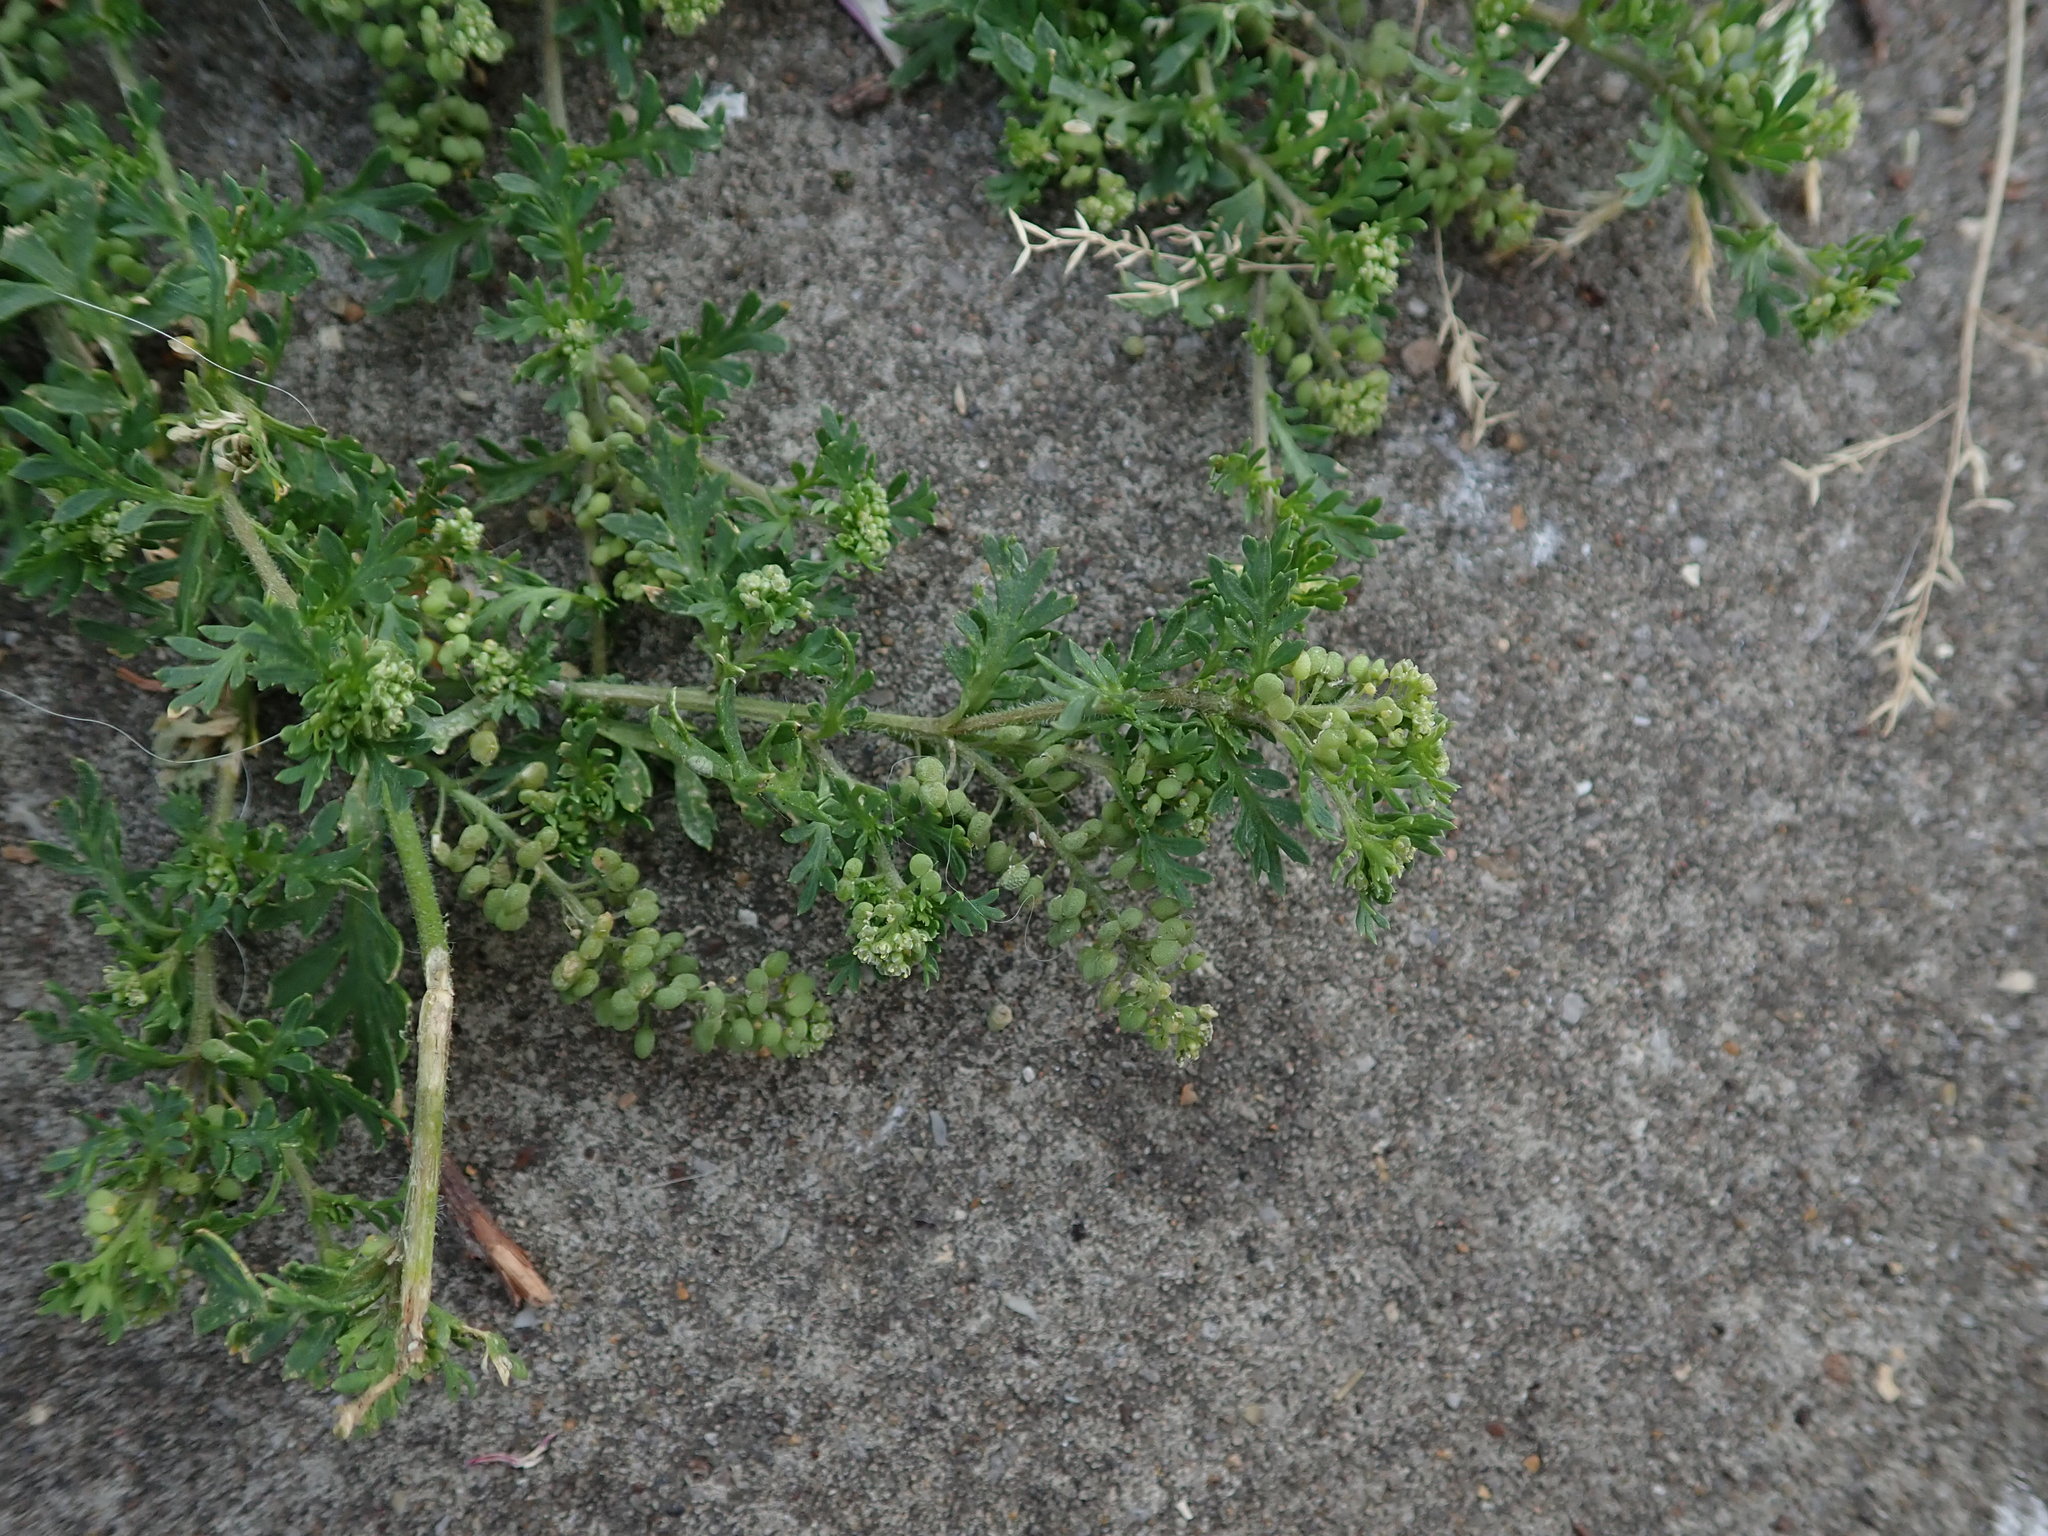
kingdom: Plantae
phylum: Tracheophyta
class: Magnoliopsida
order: Brassicales
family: Brassicaceae
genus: Lepidium
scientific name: Lepidium didymum
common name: Lesser swinecress
